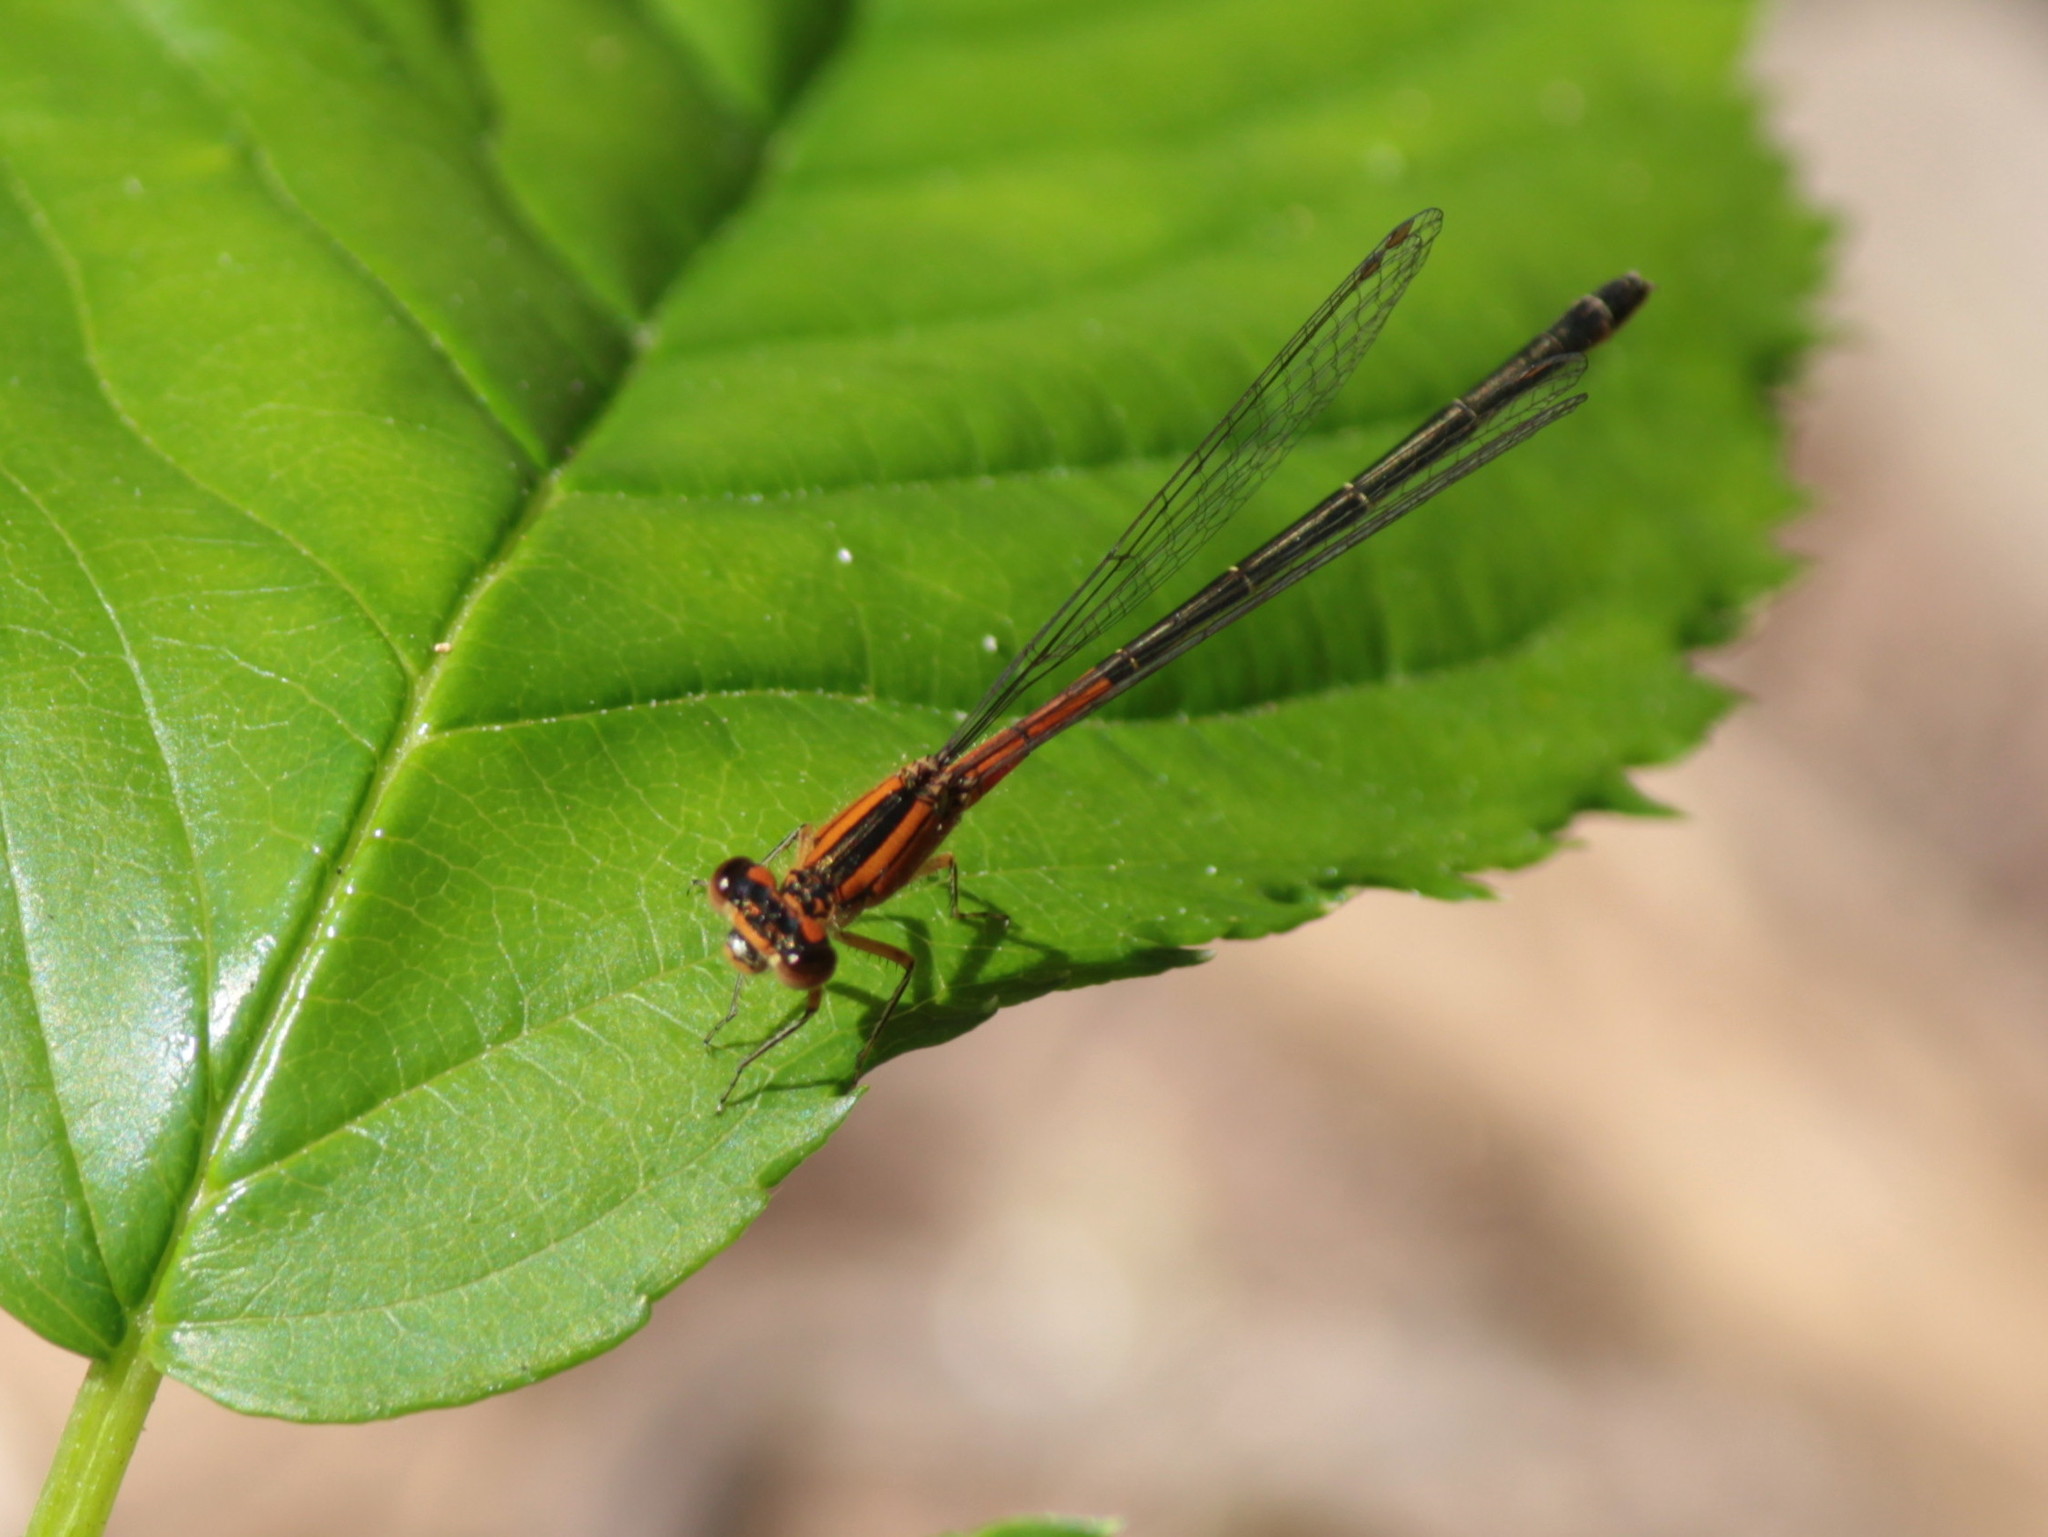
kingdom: Animalia
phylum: Arthropoda
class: Insecta
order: Odonata
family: Coenagrionidae
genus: Ischnura
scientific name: Ischnura verticalis
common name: Eastern forktail
